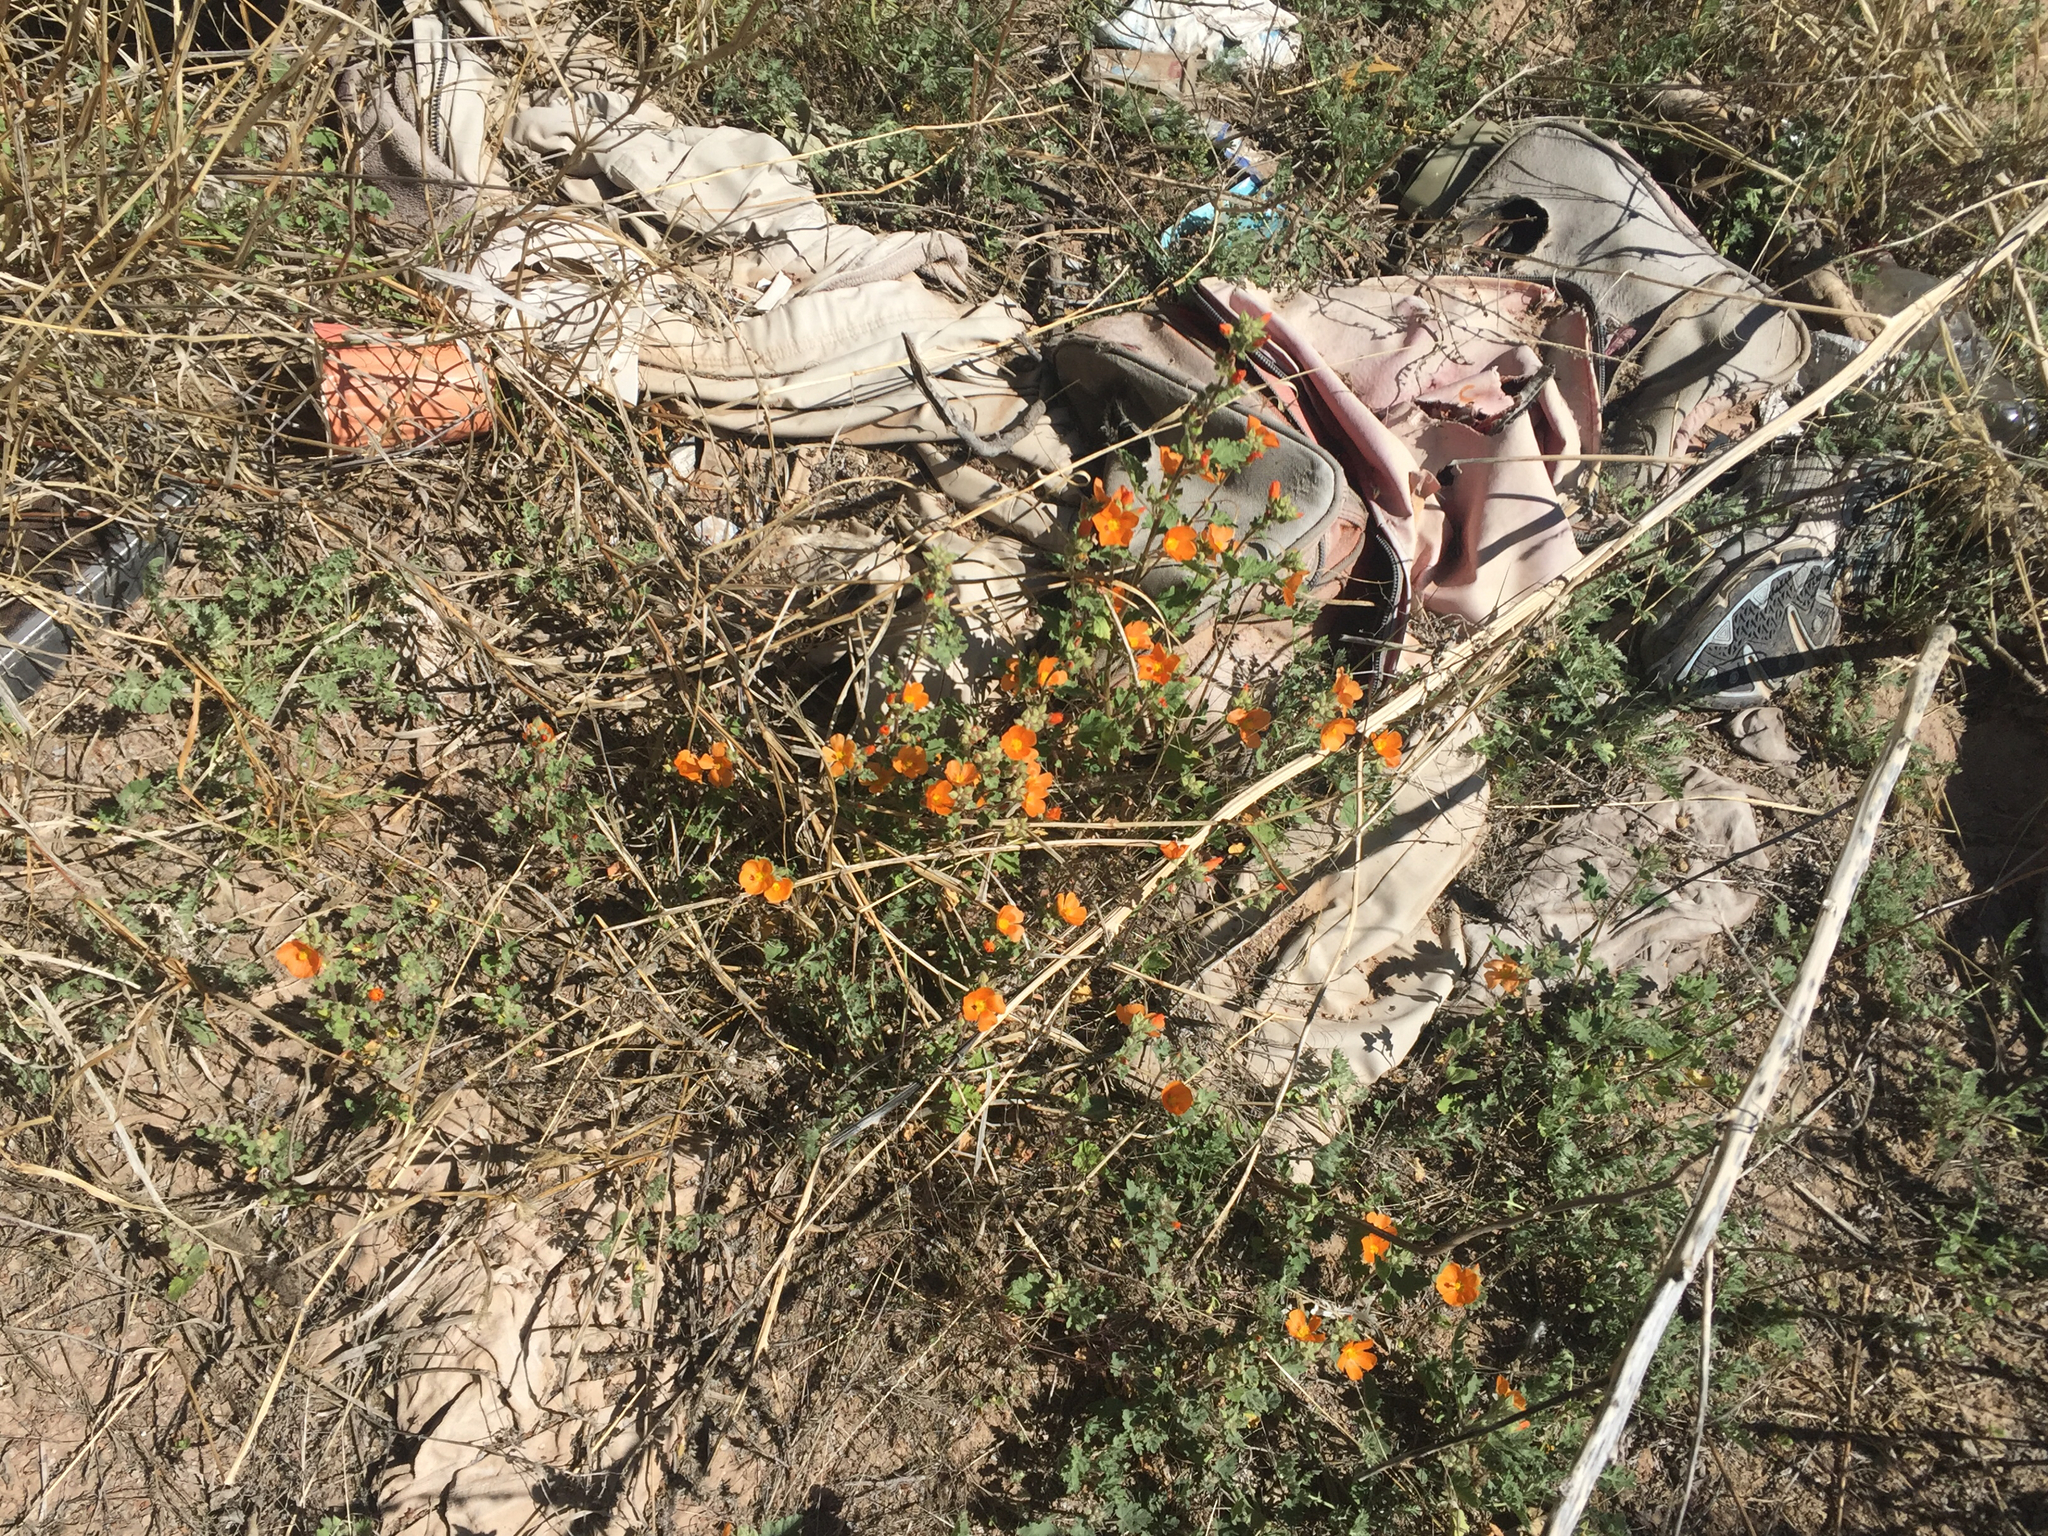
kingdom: Plantae
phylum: Tracheophyta
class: Magnoliopsida
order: Malvales
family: Malvaceae
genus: Sphaeralcea
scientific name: Sphaeralcea ambigua
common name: Apricot globe-mallow
